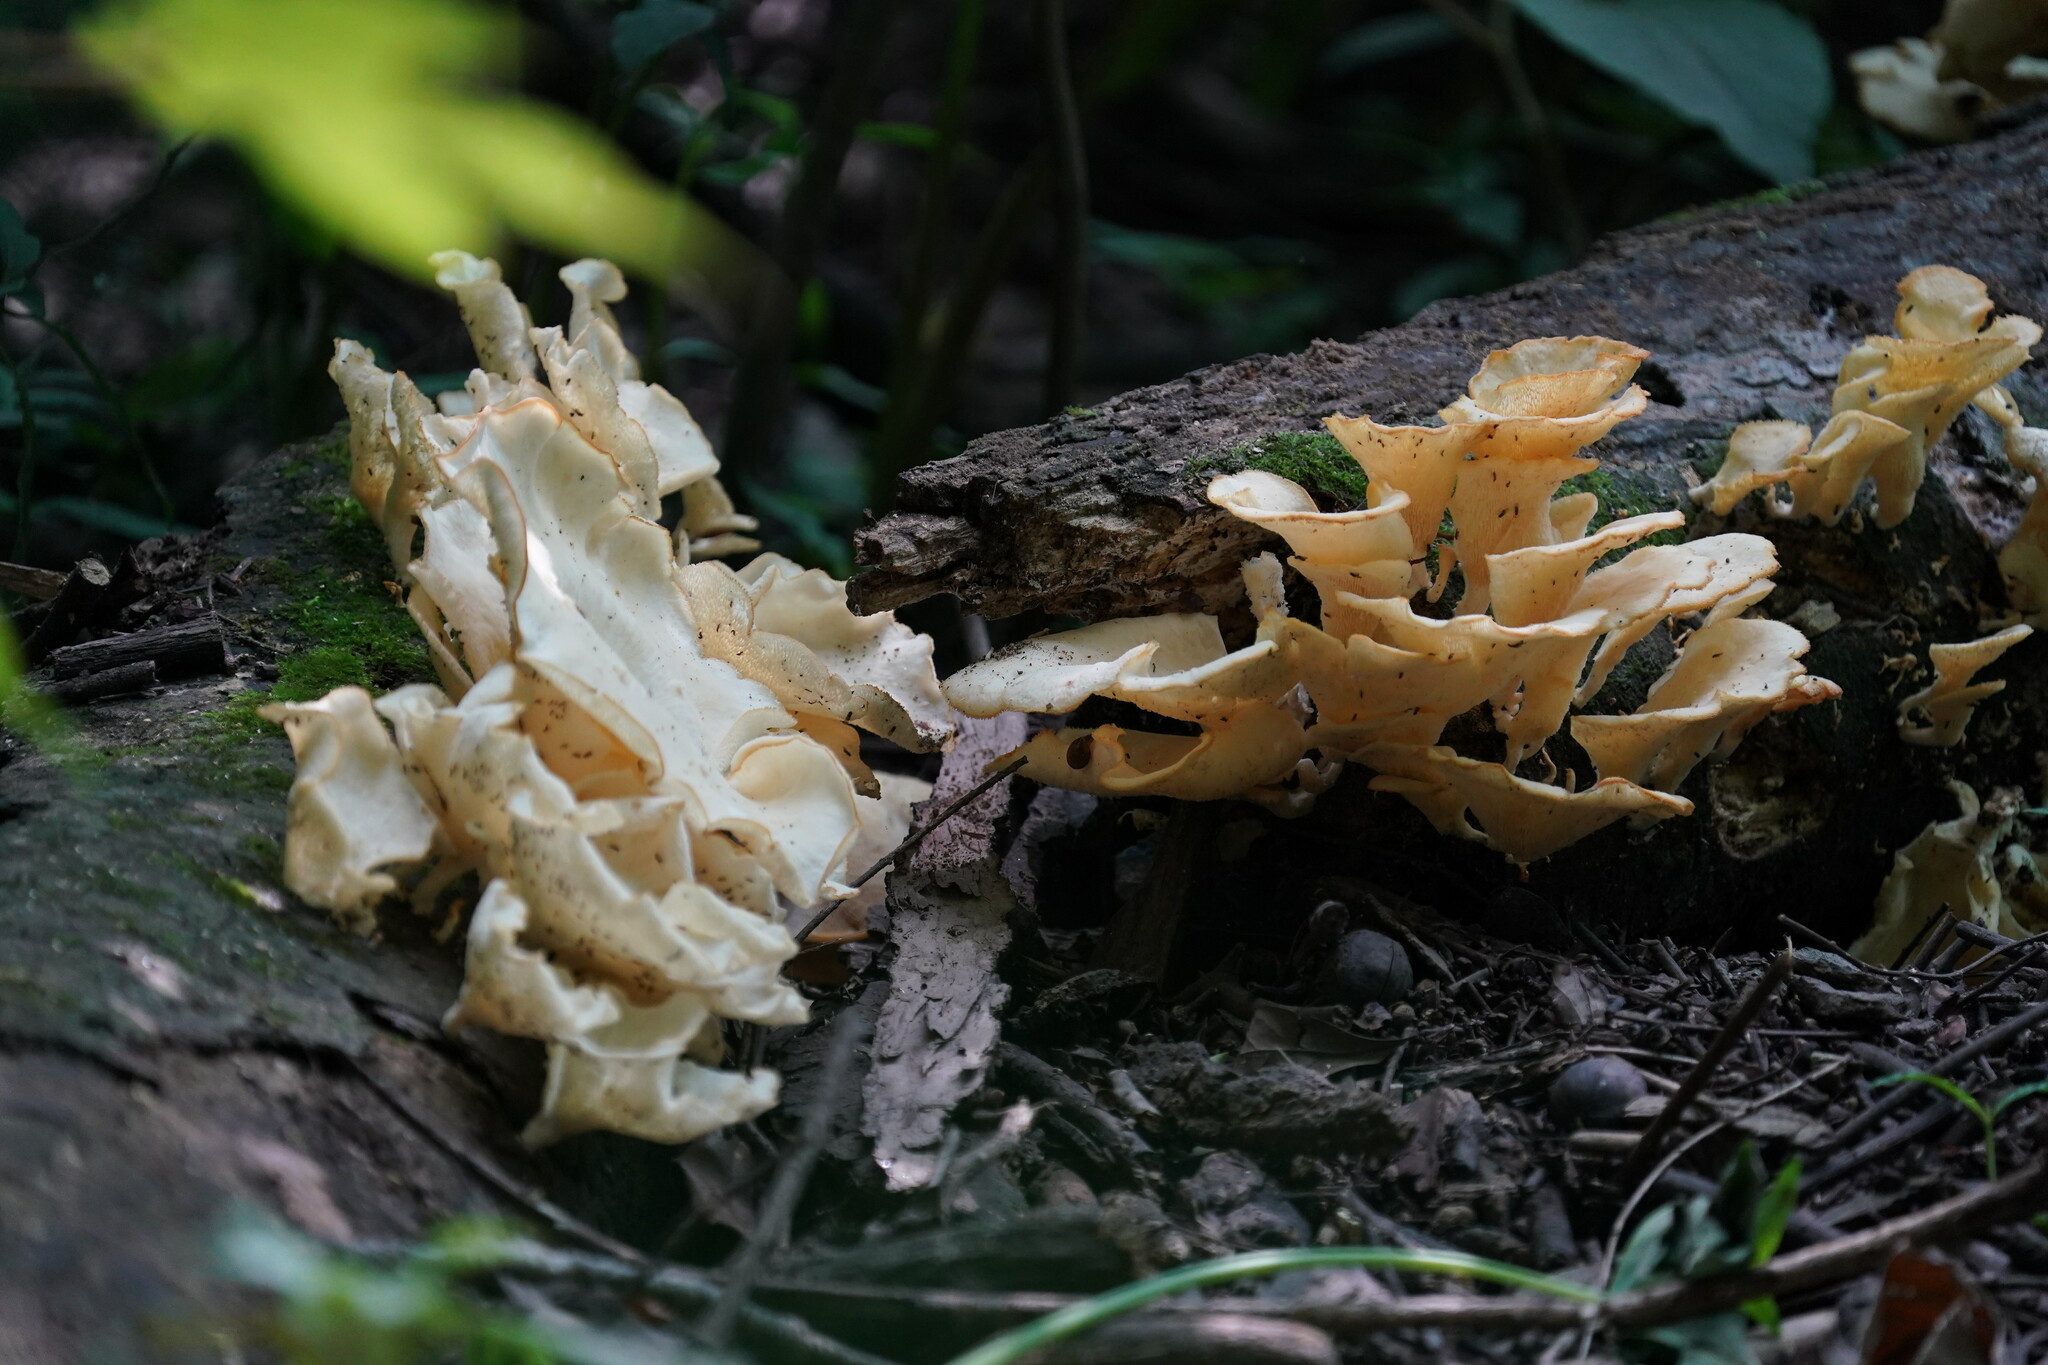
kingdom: Fungi
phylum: Basidiomycota
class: Agaricomycetes
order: Polyporales
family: Polyporaceae
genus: Favolus
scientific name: Favolus tenuiculus
